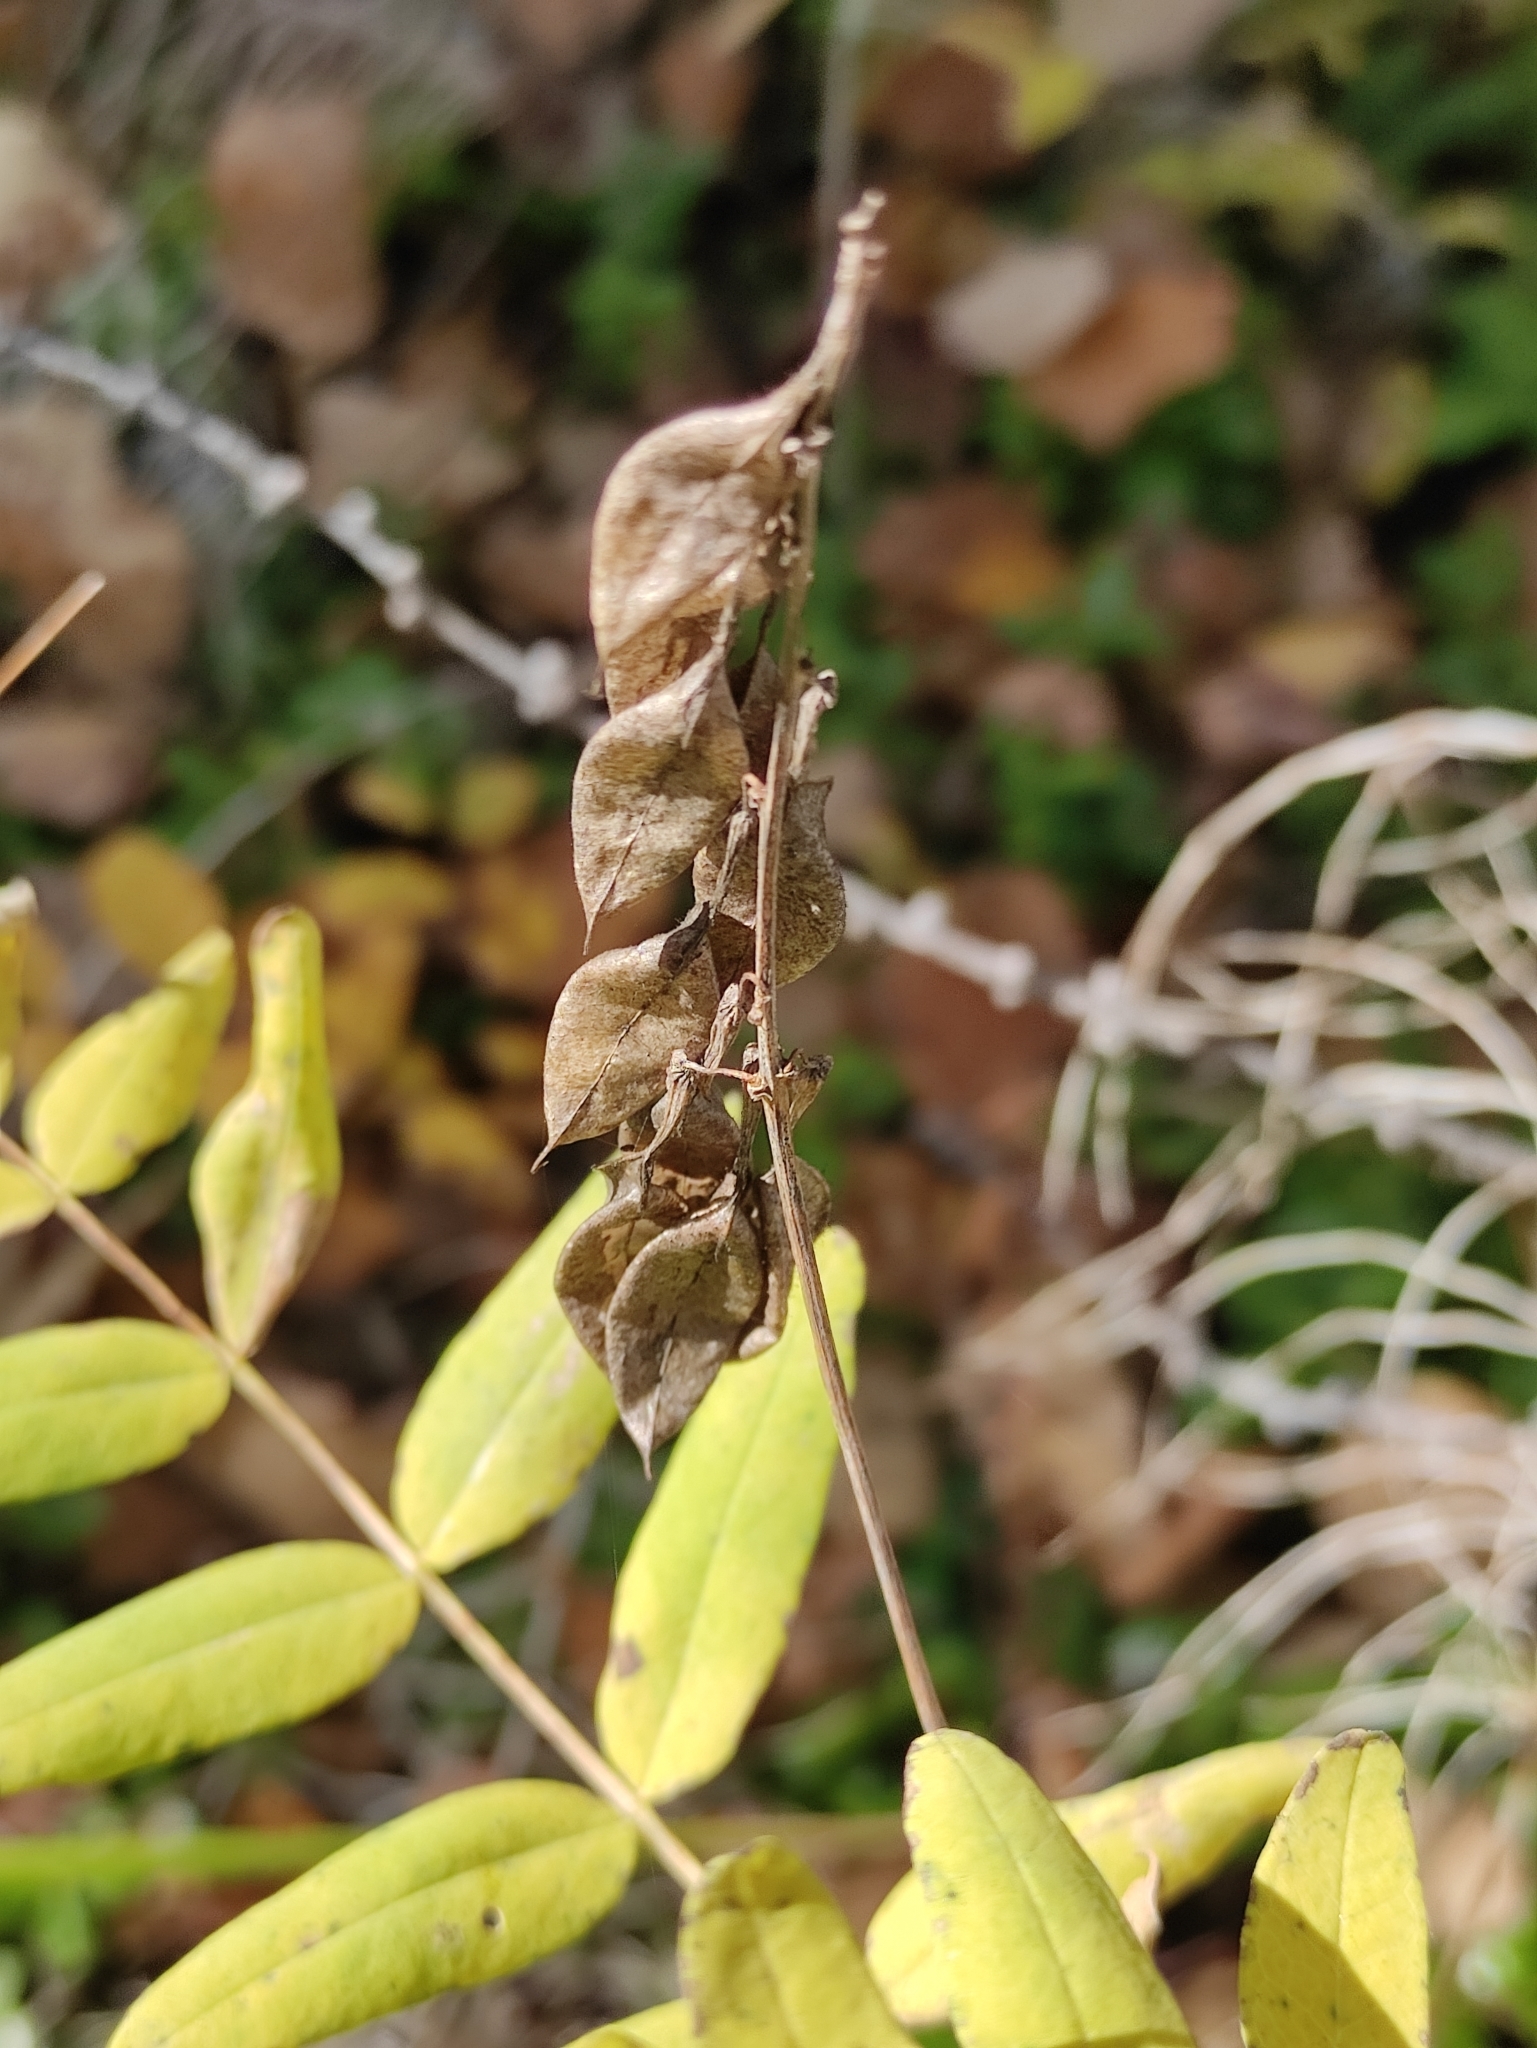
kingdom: Plantae
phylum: Tracheophyta
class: Magnoliopsida
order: Fabales
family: Fabaceae
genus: Astragalus
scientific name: Astragalus frigidus
